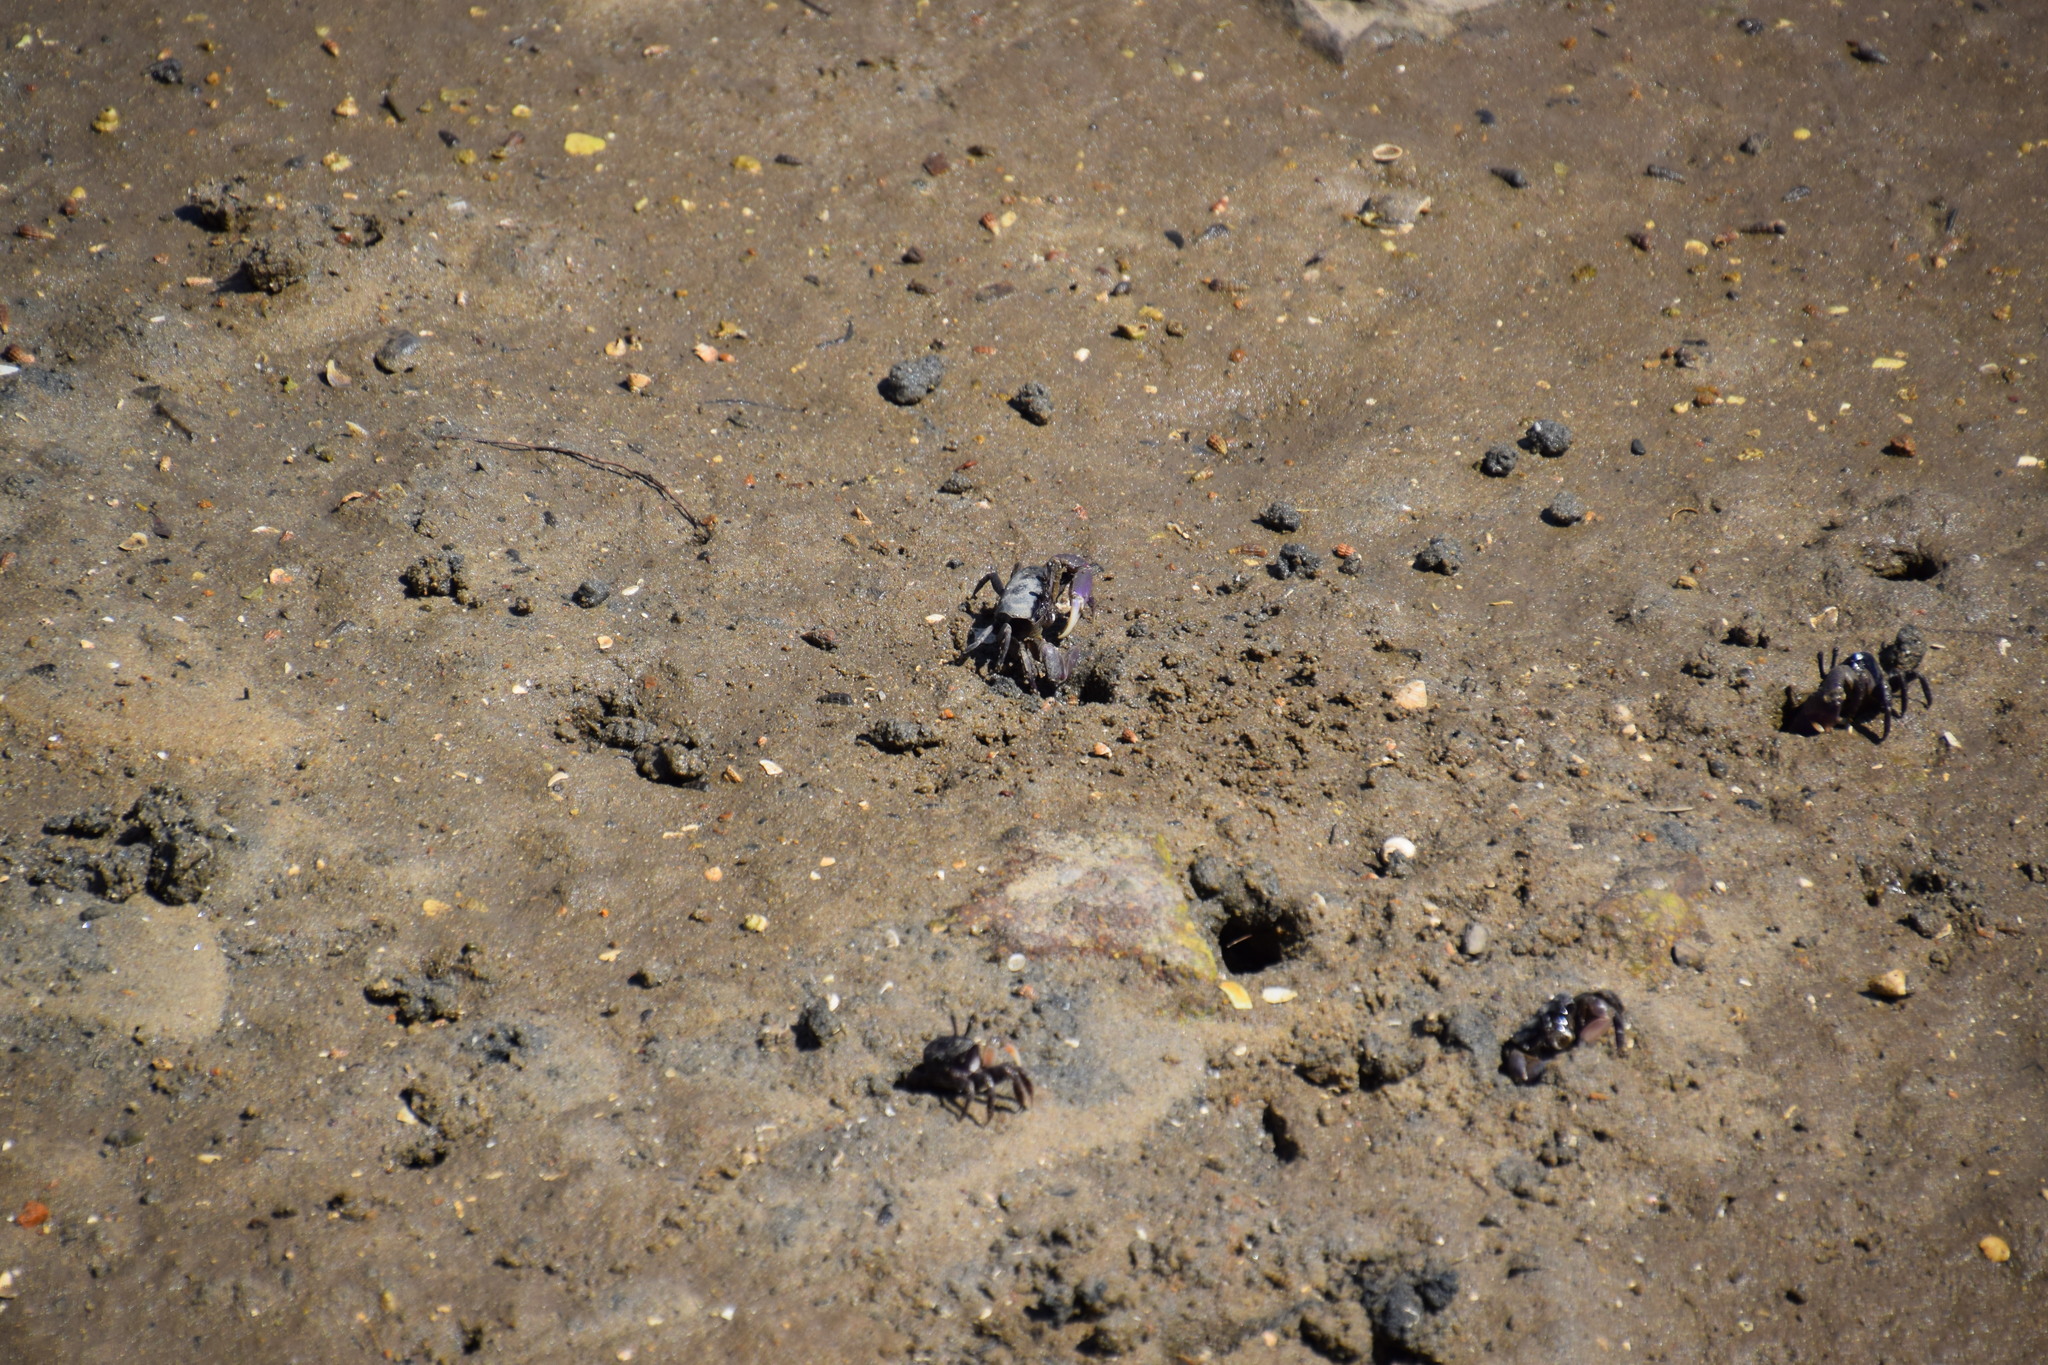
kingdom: Animalia
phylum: Arthropoda
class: Malacostraca
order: Decapoda
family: Heloeciidae
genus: Heloecius
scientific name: Heloecius cordiformis
